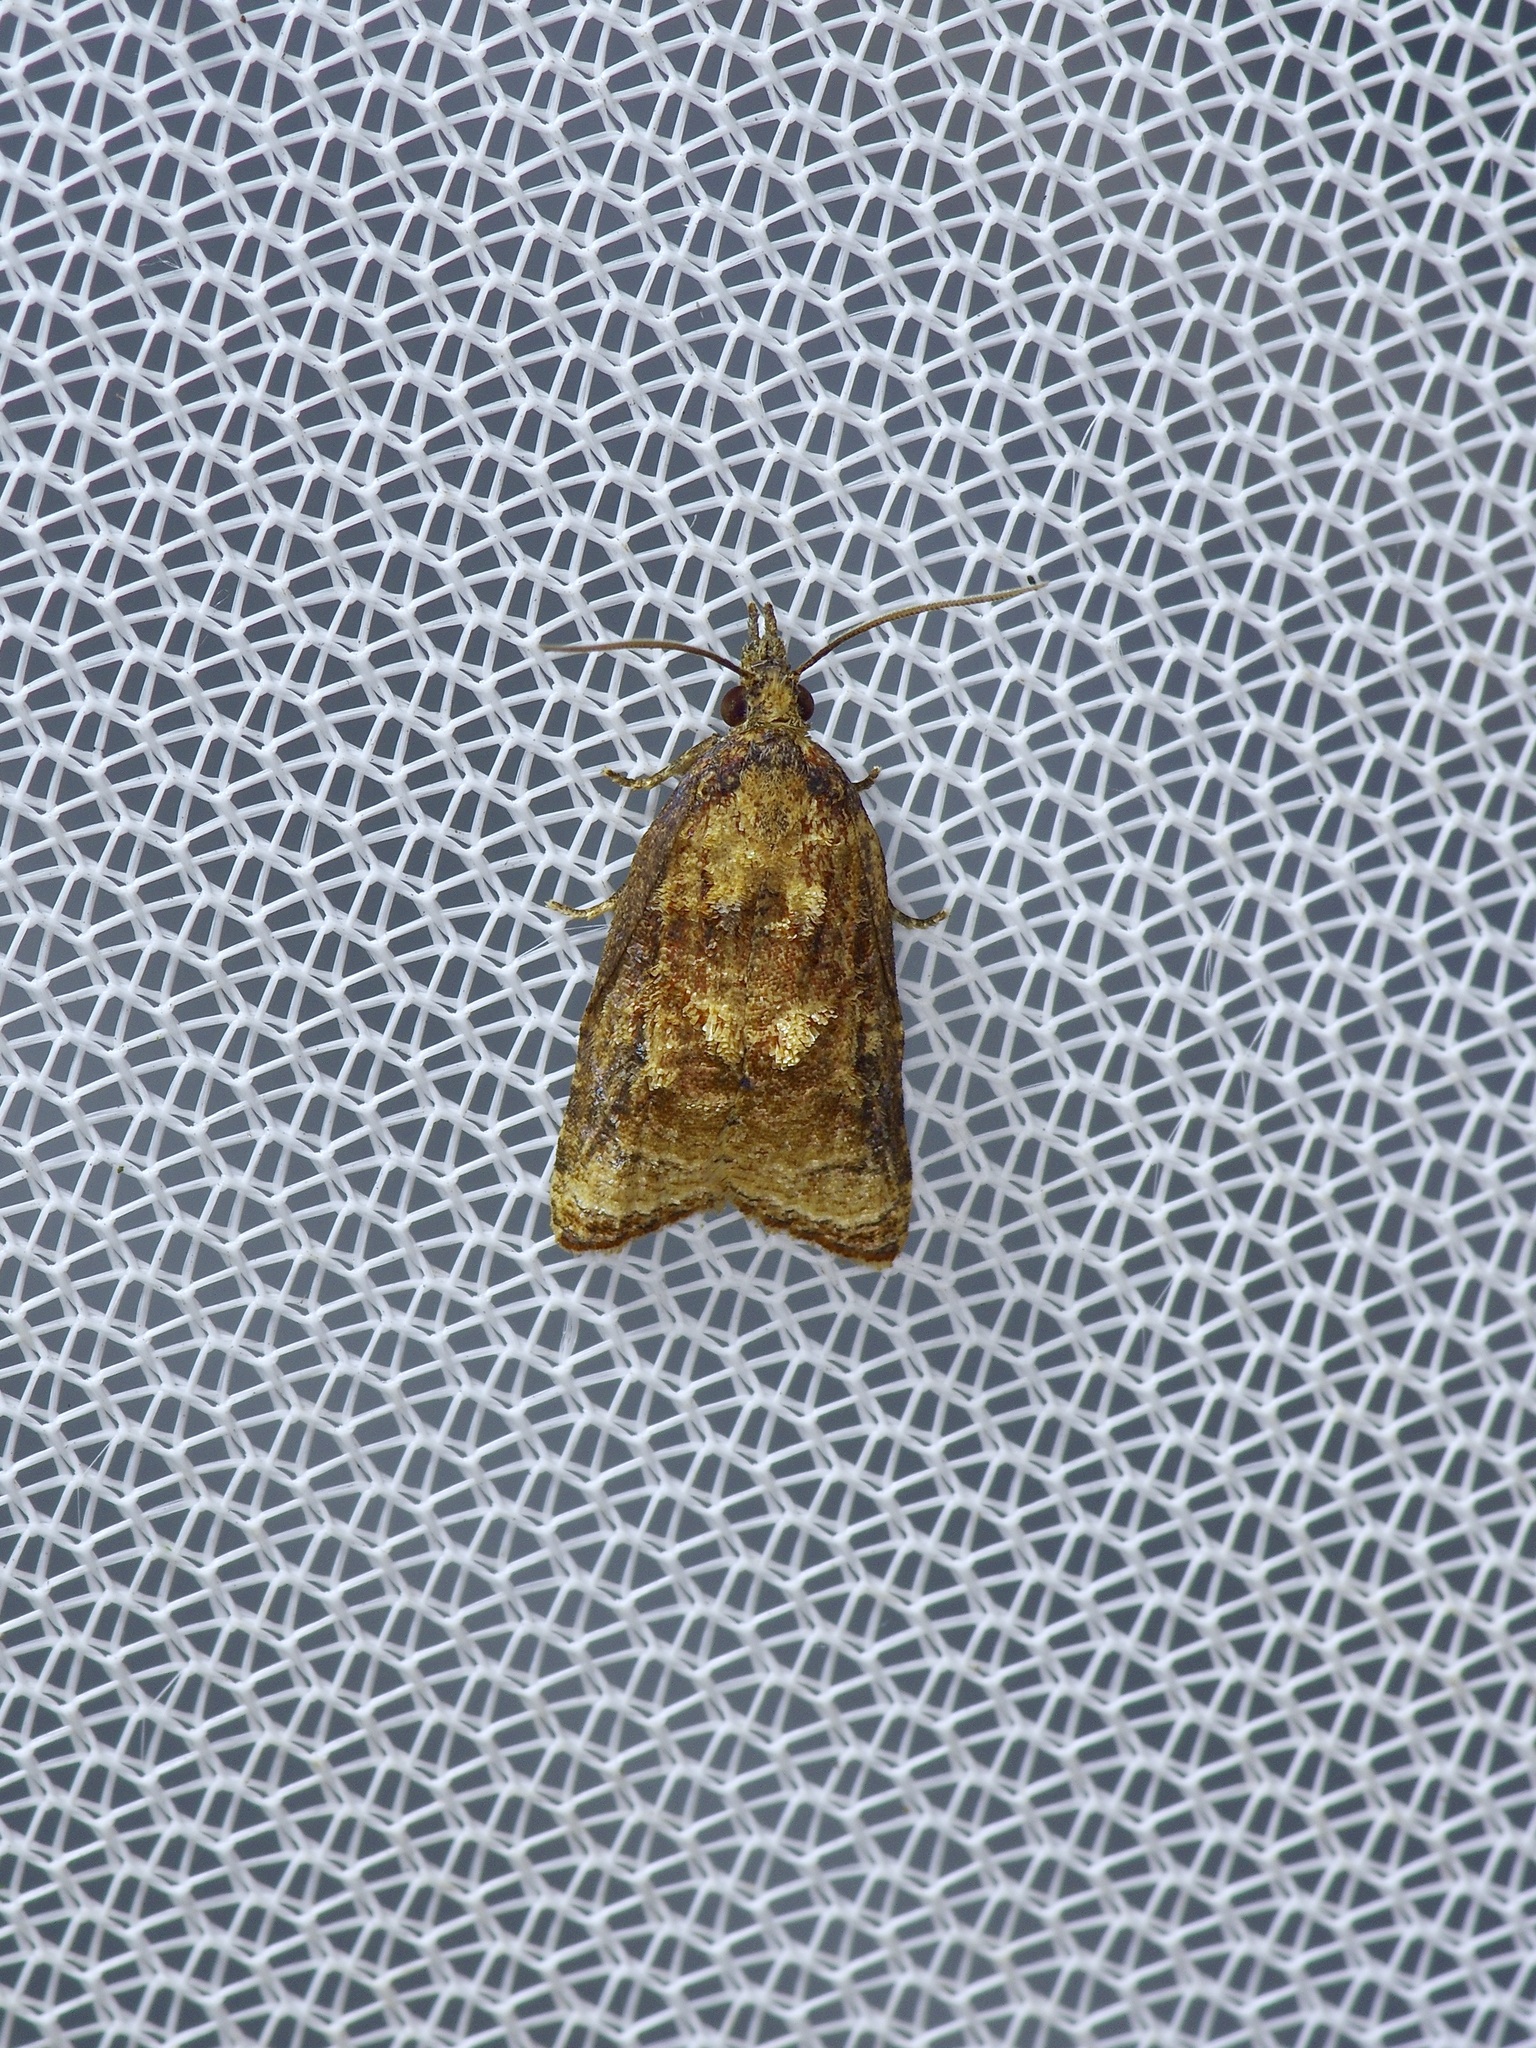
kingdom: Animalia
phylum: Arthropoda
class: Insecta
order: Lepidoptera
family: Tortricidae
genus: Platynota
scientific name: Platynota flavedana
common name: Black-shaded platynota moth
